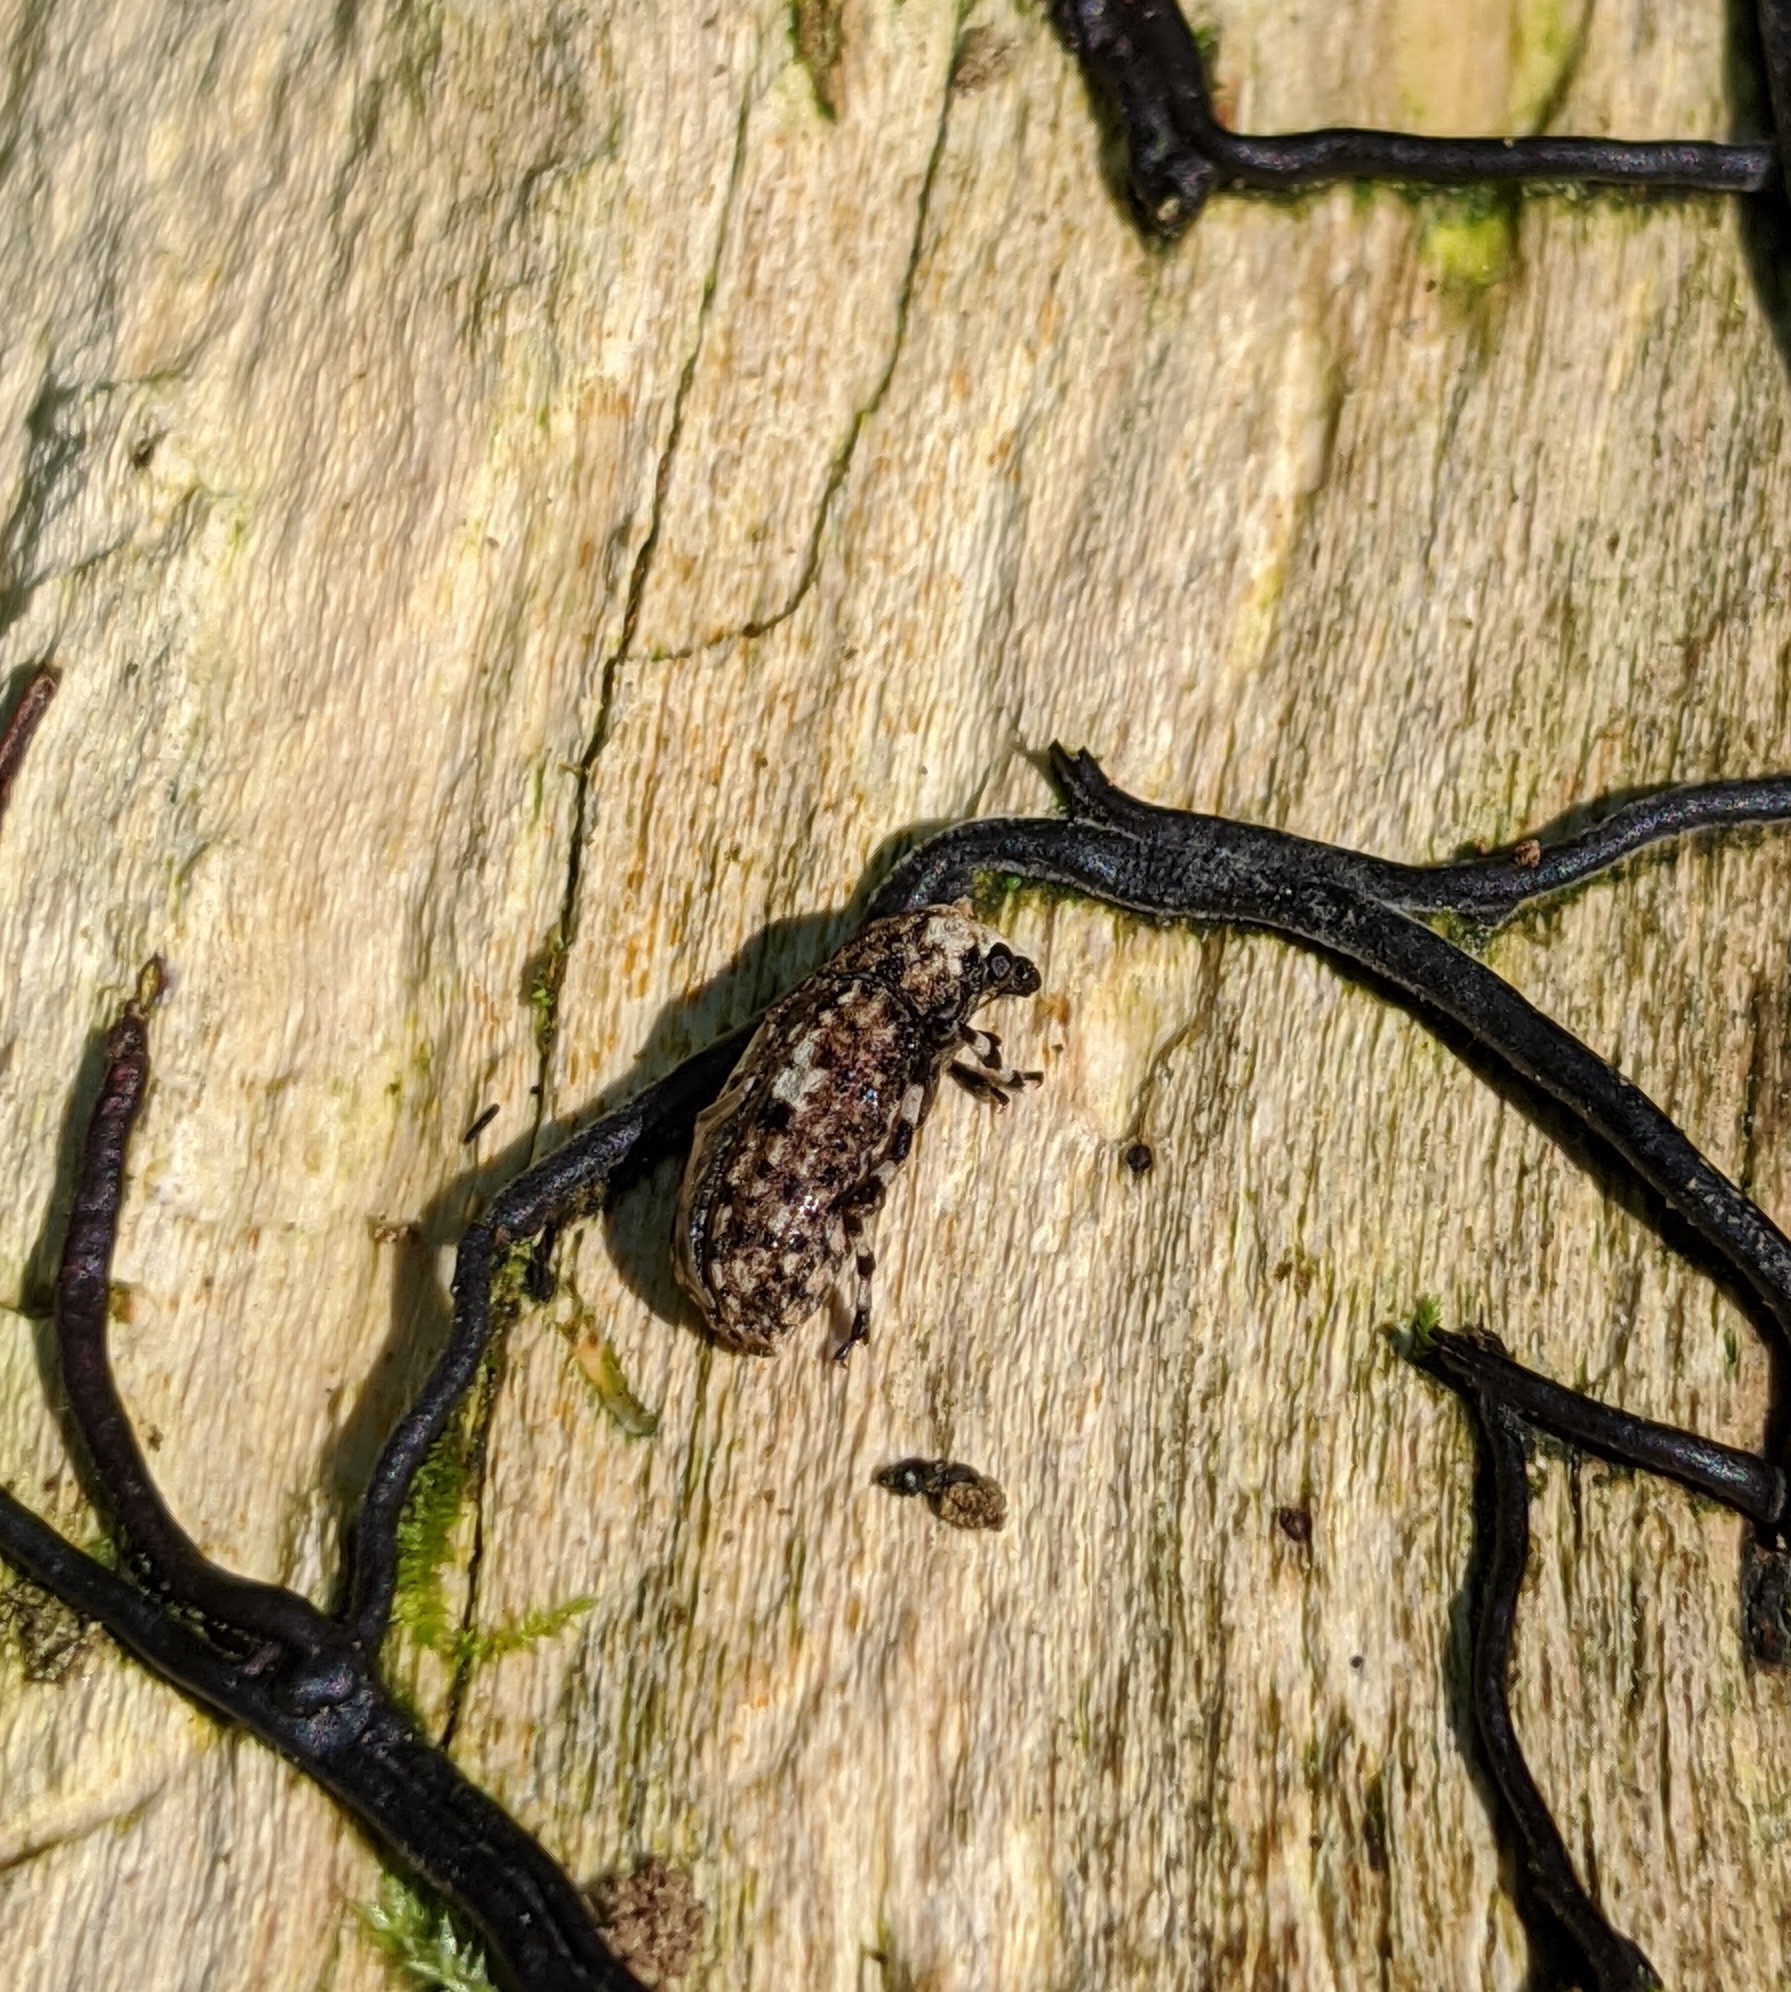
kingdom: Animalia
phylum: Arthropoda
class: Insecta
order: Coleoptera
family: Anthribidae
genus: Euparius
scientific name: Euparius marmoreus
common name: Marbled fungus weevil
